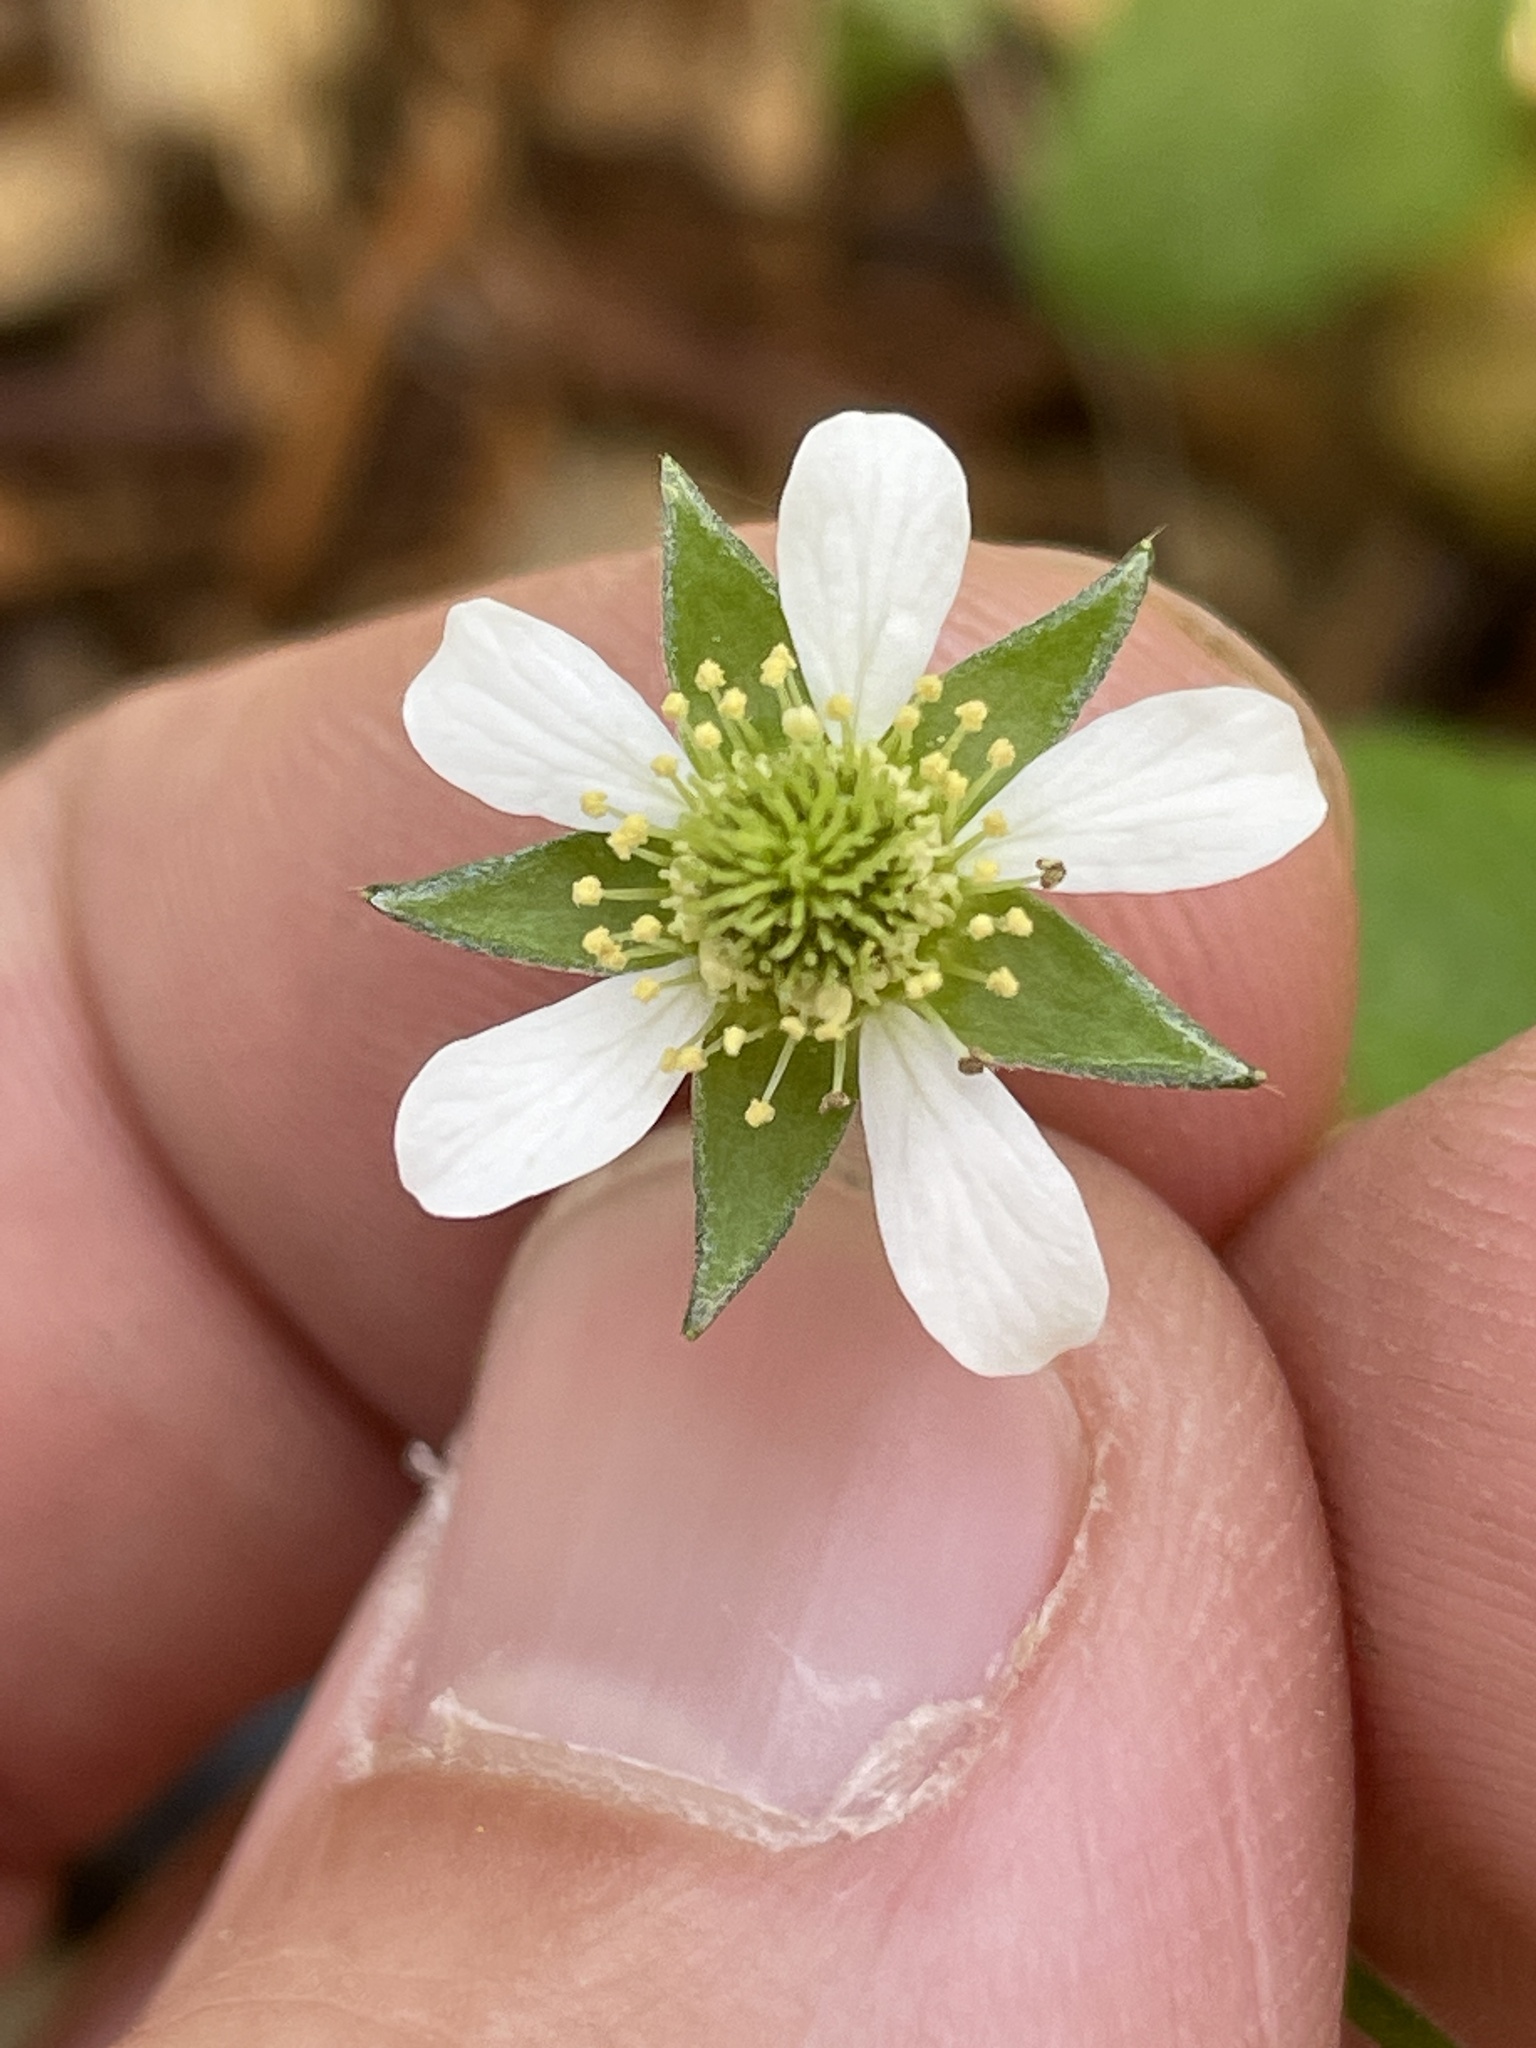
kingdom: Plantae
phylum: Tracheophyta
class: Magnoliopsida
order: Rosales
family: Rosaceae
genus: Geum
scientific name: Geum canadense
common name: White avens
